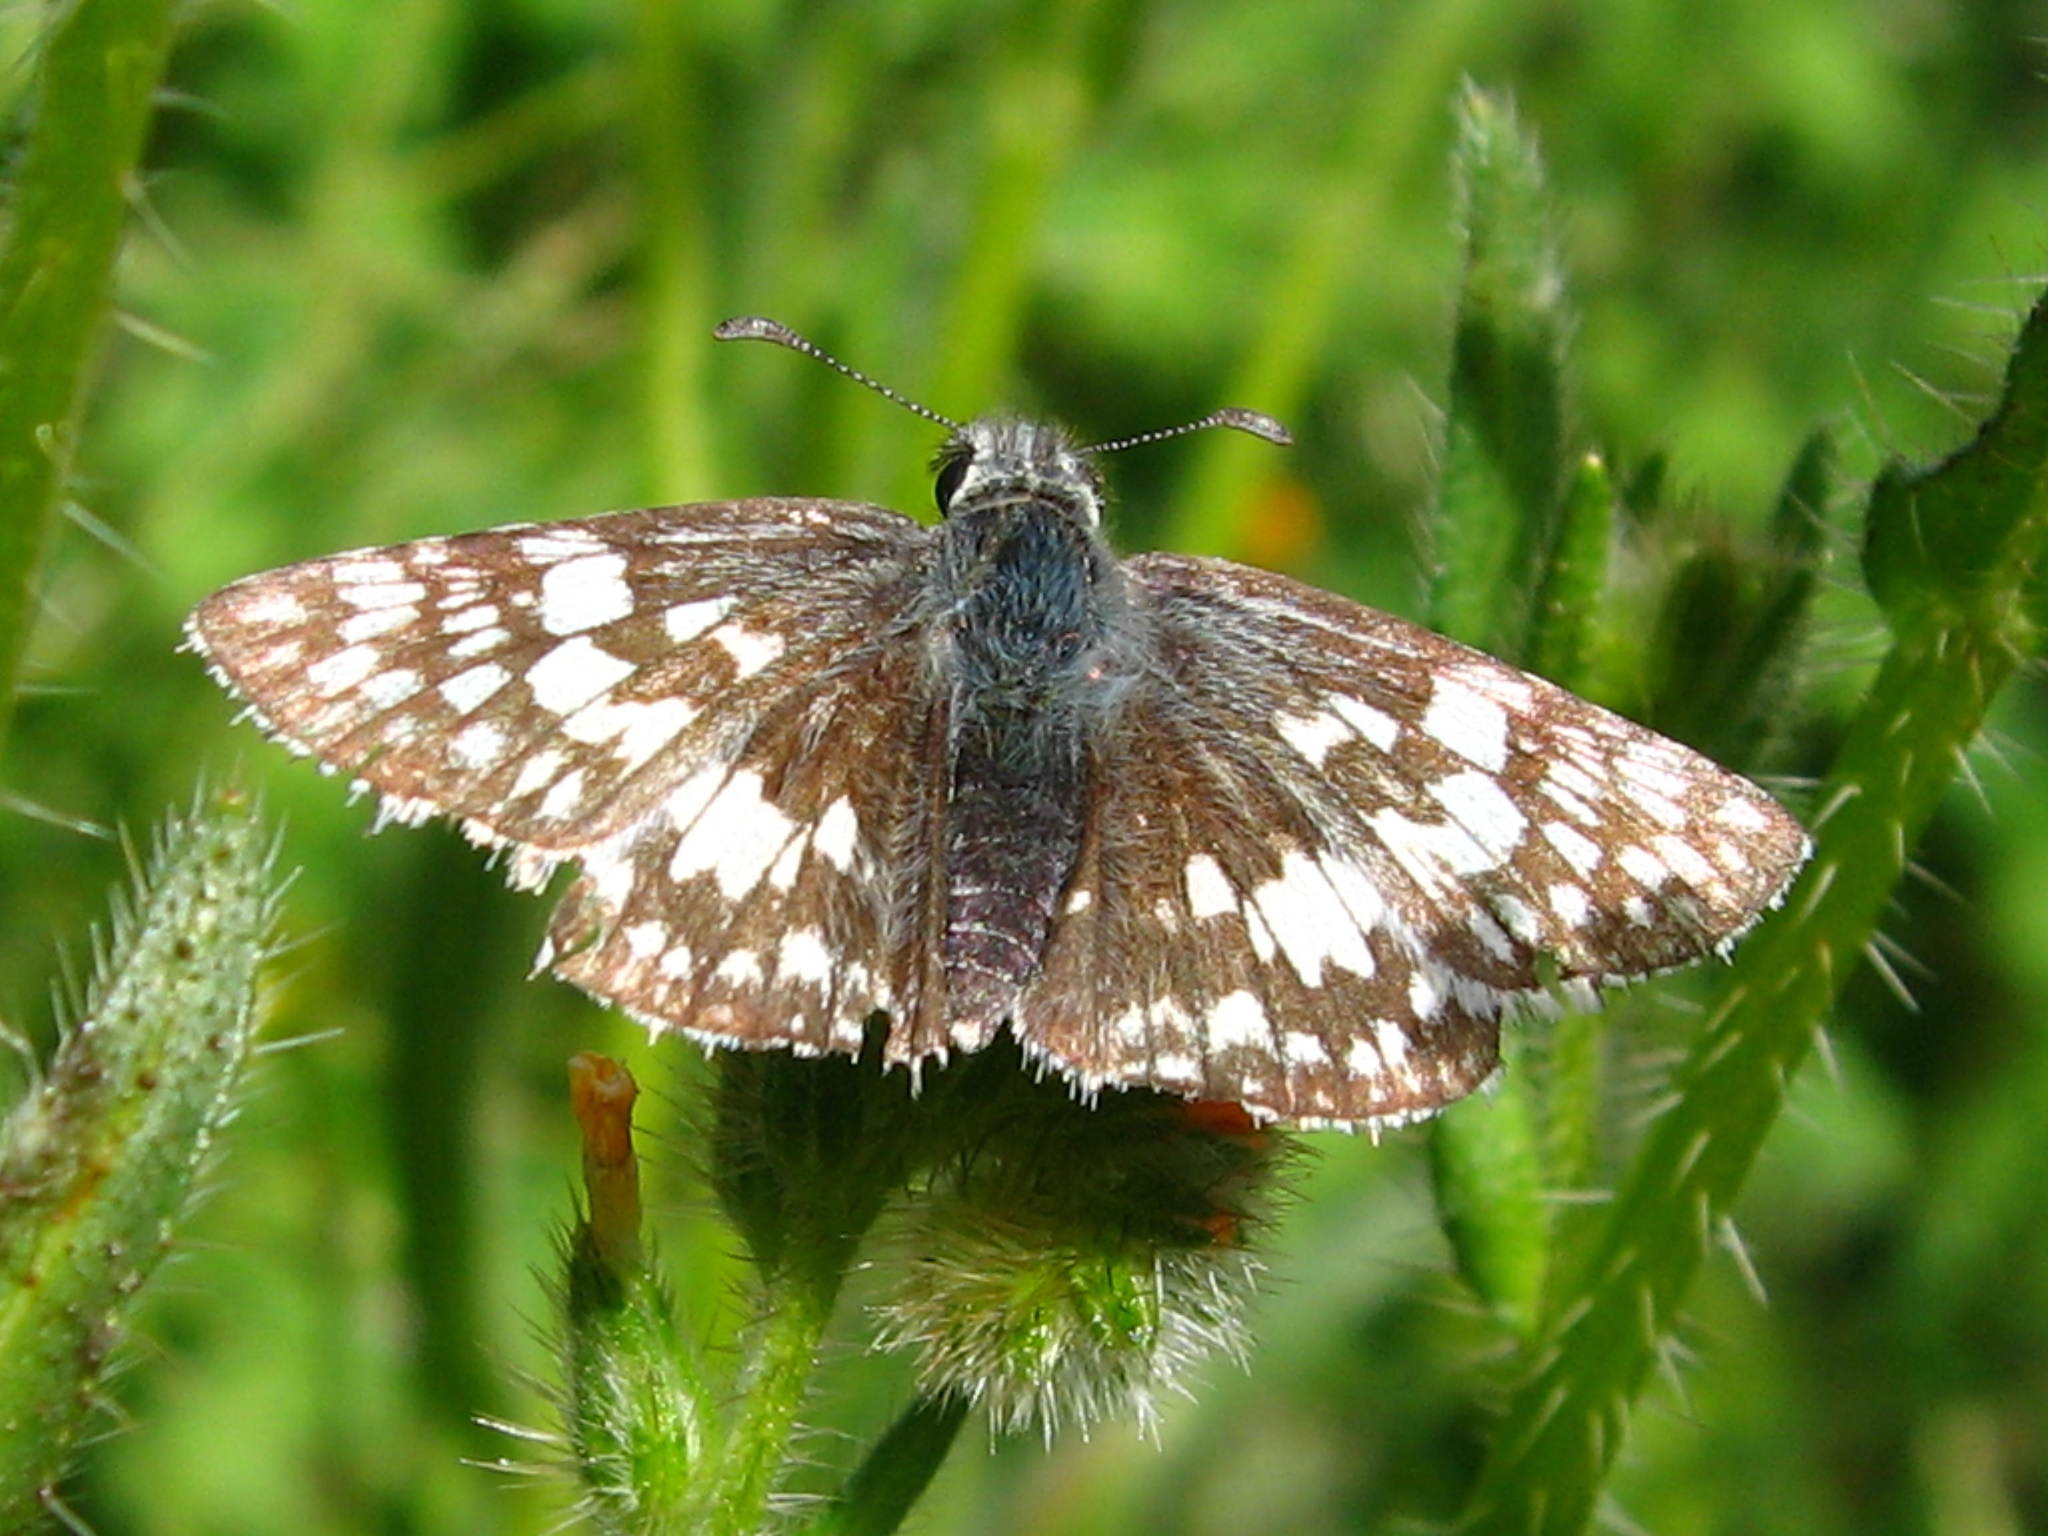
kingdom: Animalia
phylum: Arthropoda
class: Insecta
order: Lepidoptera
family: Hesperiidae
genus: Burnsius
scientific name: Burnsius albezens
